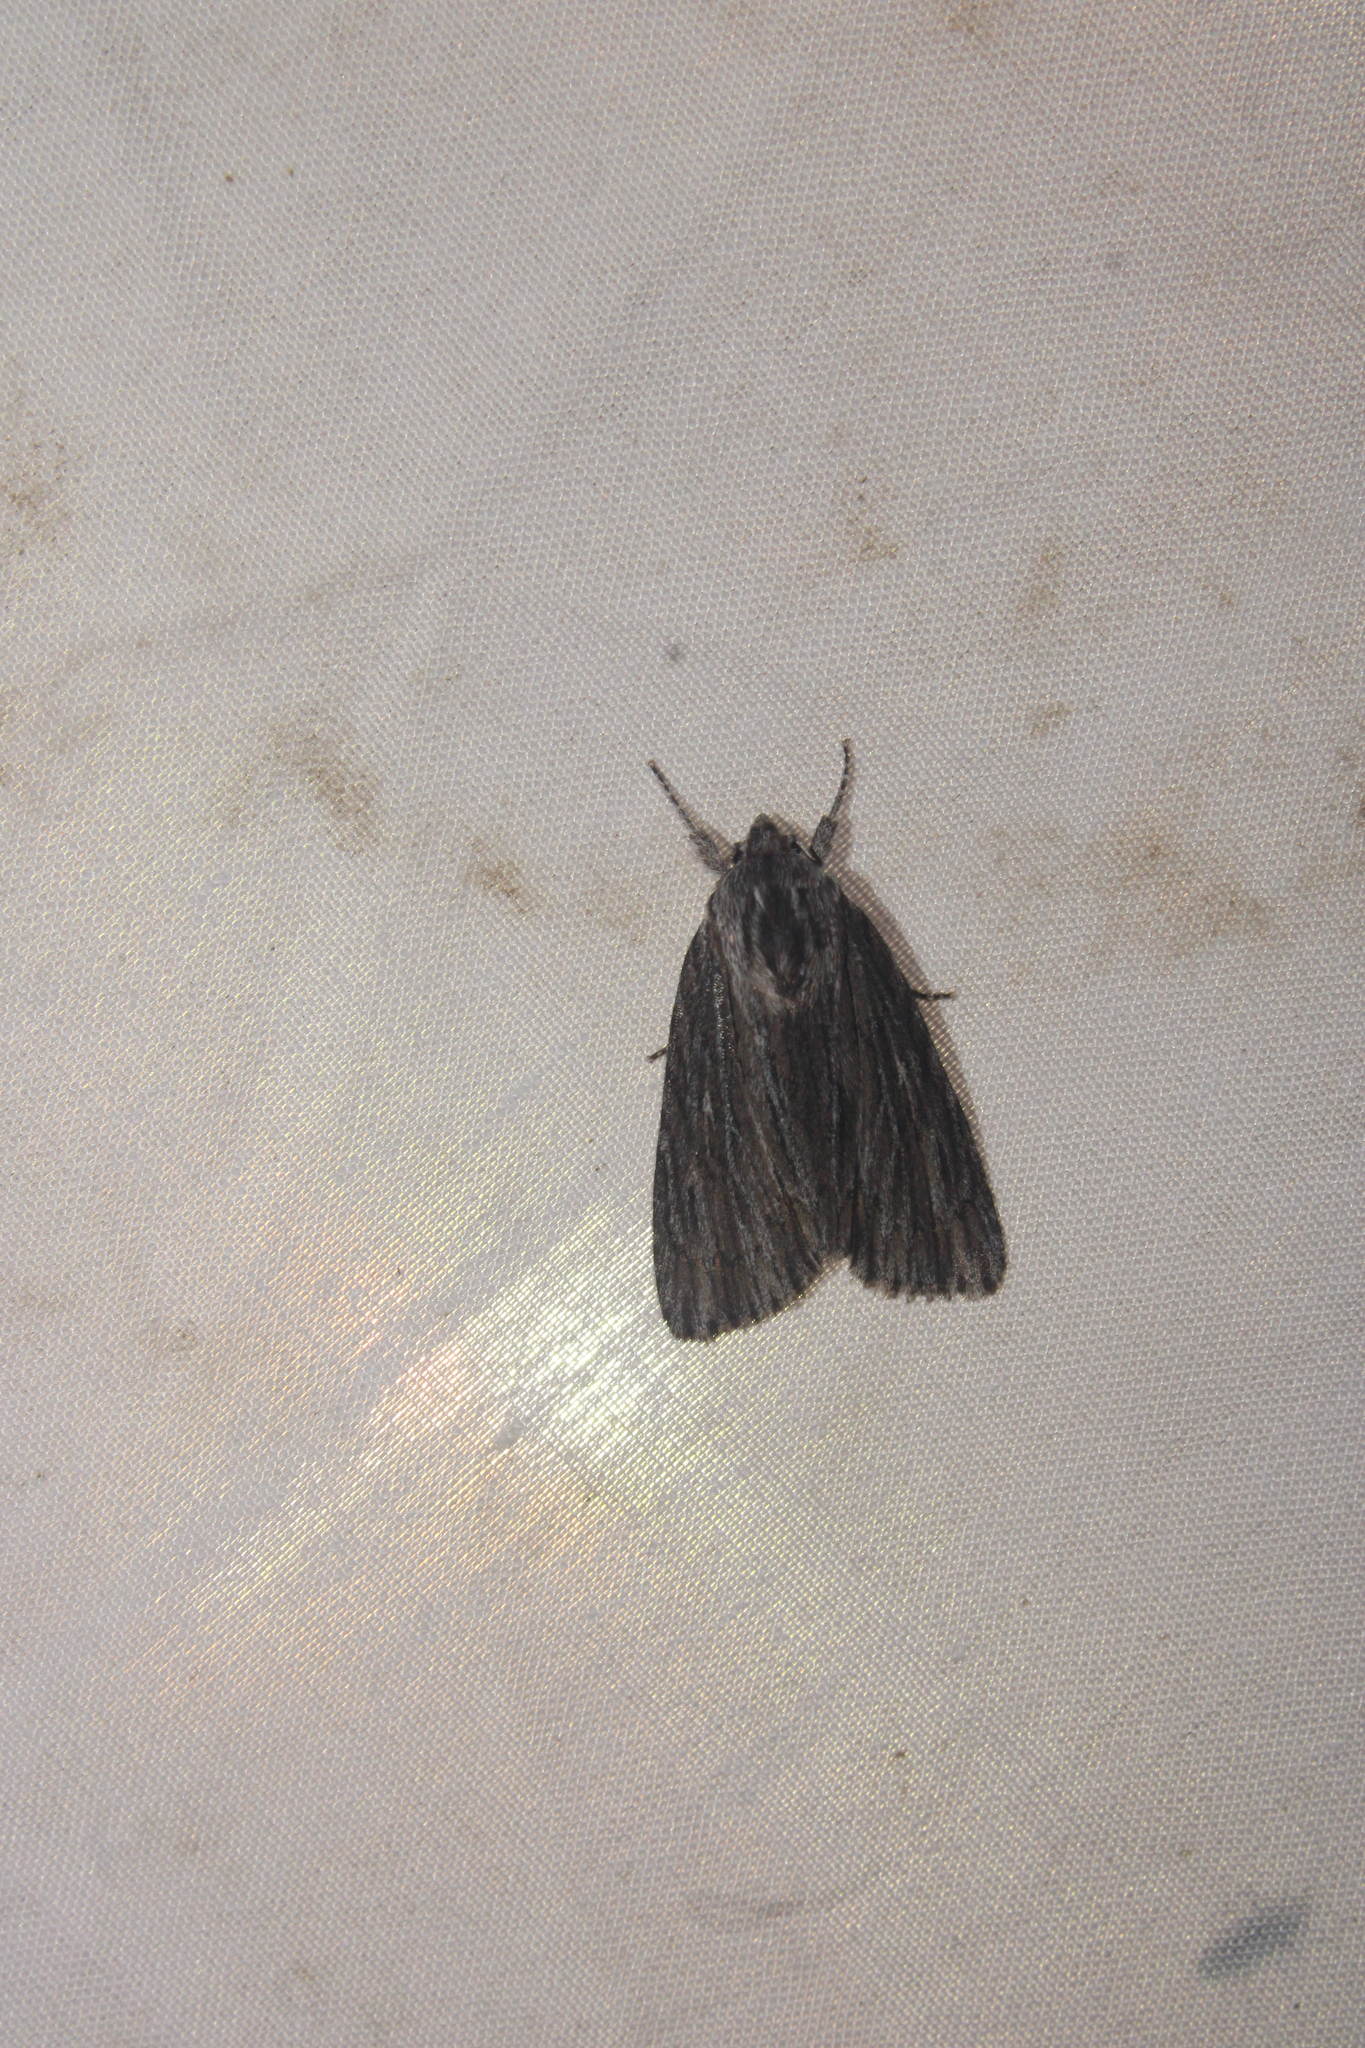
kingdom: Animalia
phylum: Arthropoda
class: Insecta
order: Lepidoptera
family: Noctuidae
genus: Acronicta
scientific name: Acronicta lithospila
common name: Streaked dagger
